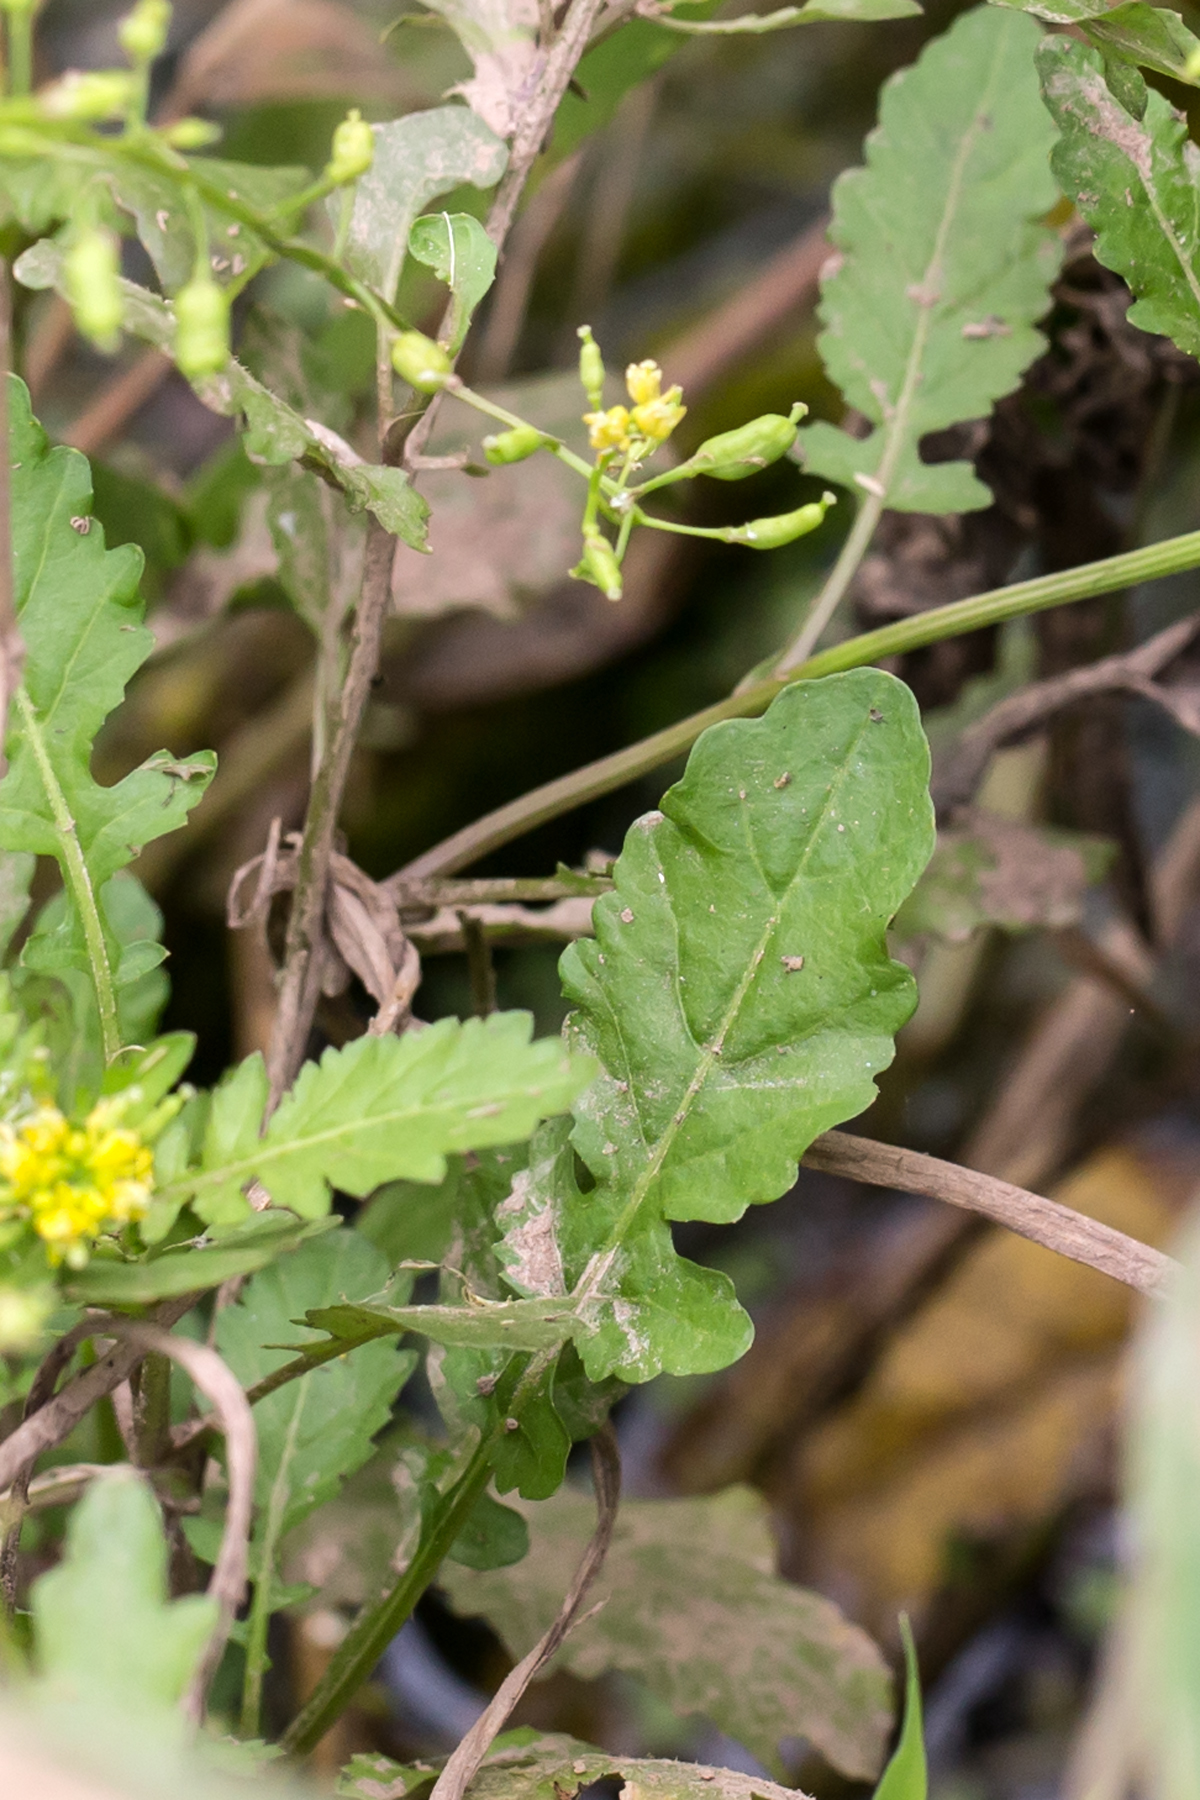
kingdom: Plantae
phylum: Tracheophyta
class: Magnoliopsida
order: Brassicales
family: Brassicaceae
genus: Rorippa
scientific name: Rorippa palustris
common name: Marsh yellow-cress
